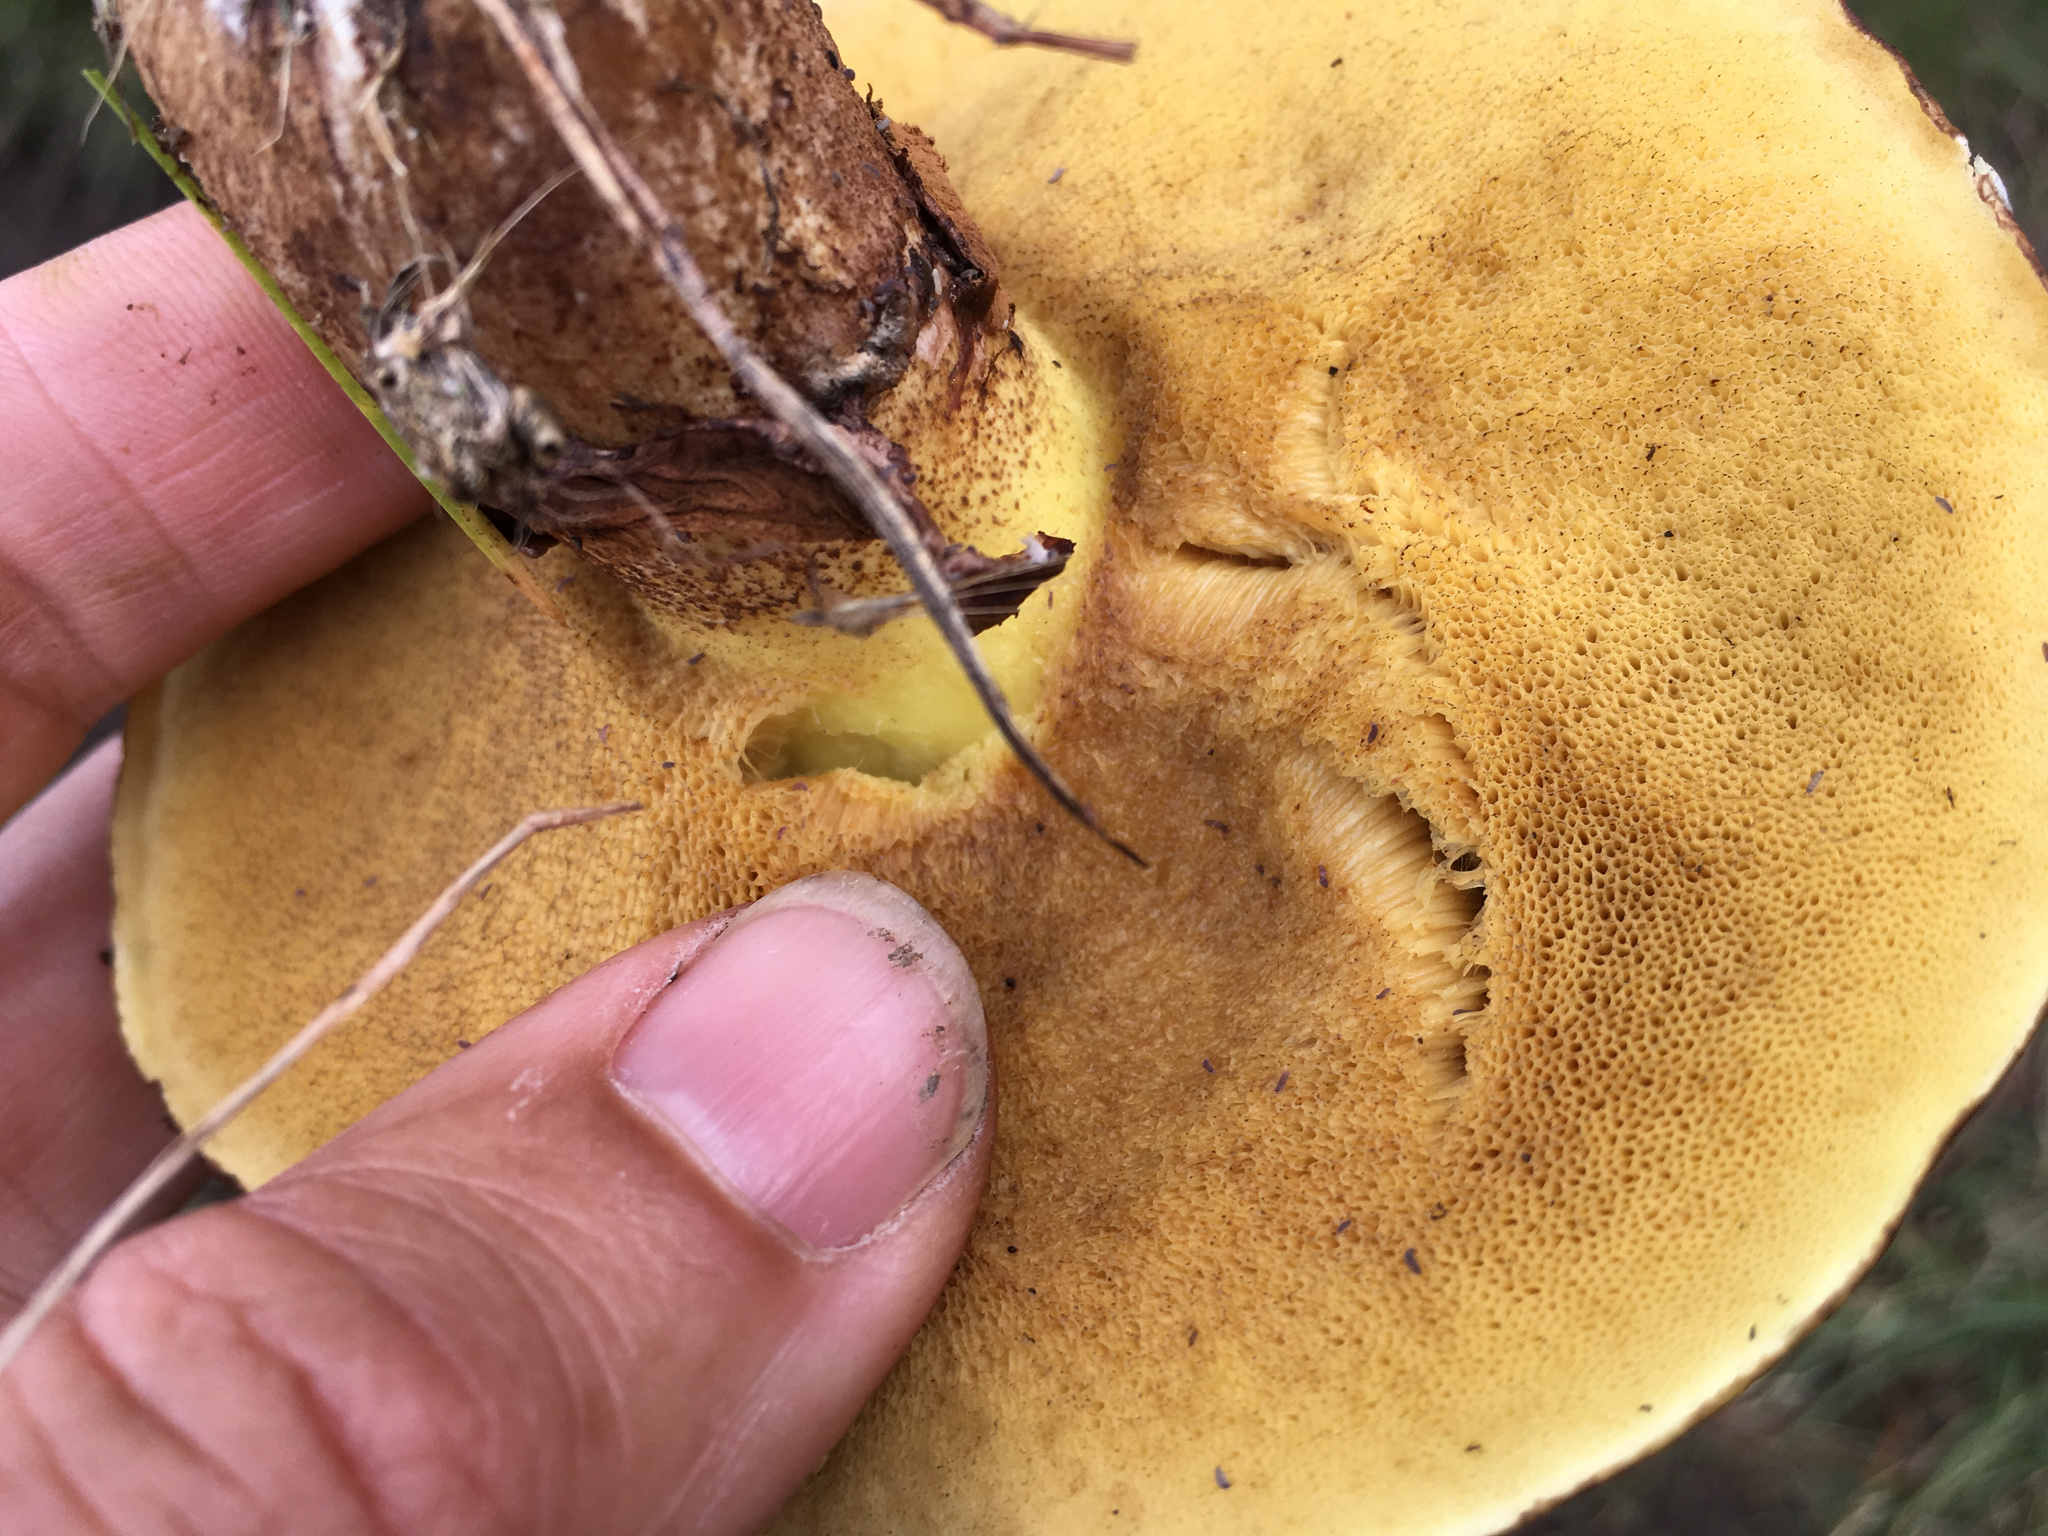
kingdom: Fungi
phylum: Basidiomycota
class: Agaricomycetes
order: Boletales
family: Suillaceae
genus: Suillus
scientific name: Suillus luteus
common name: Slippery jack
